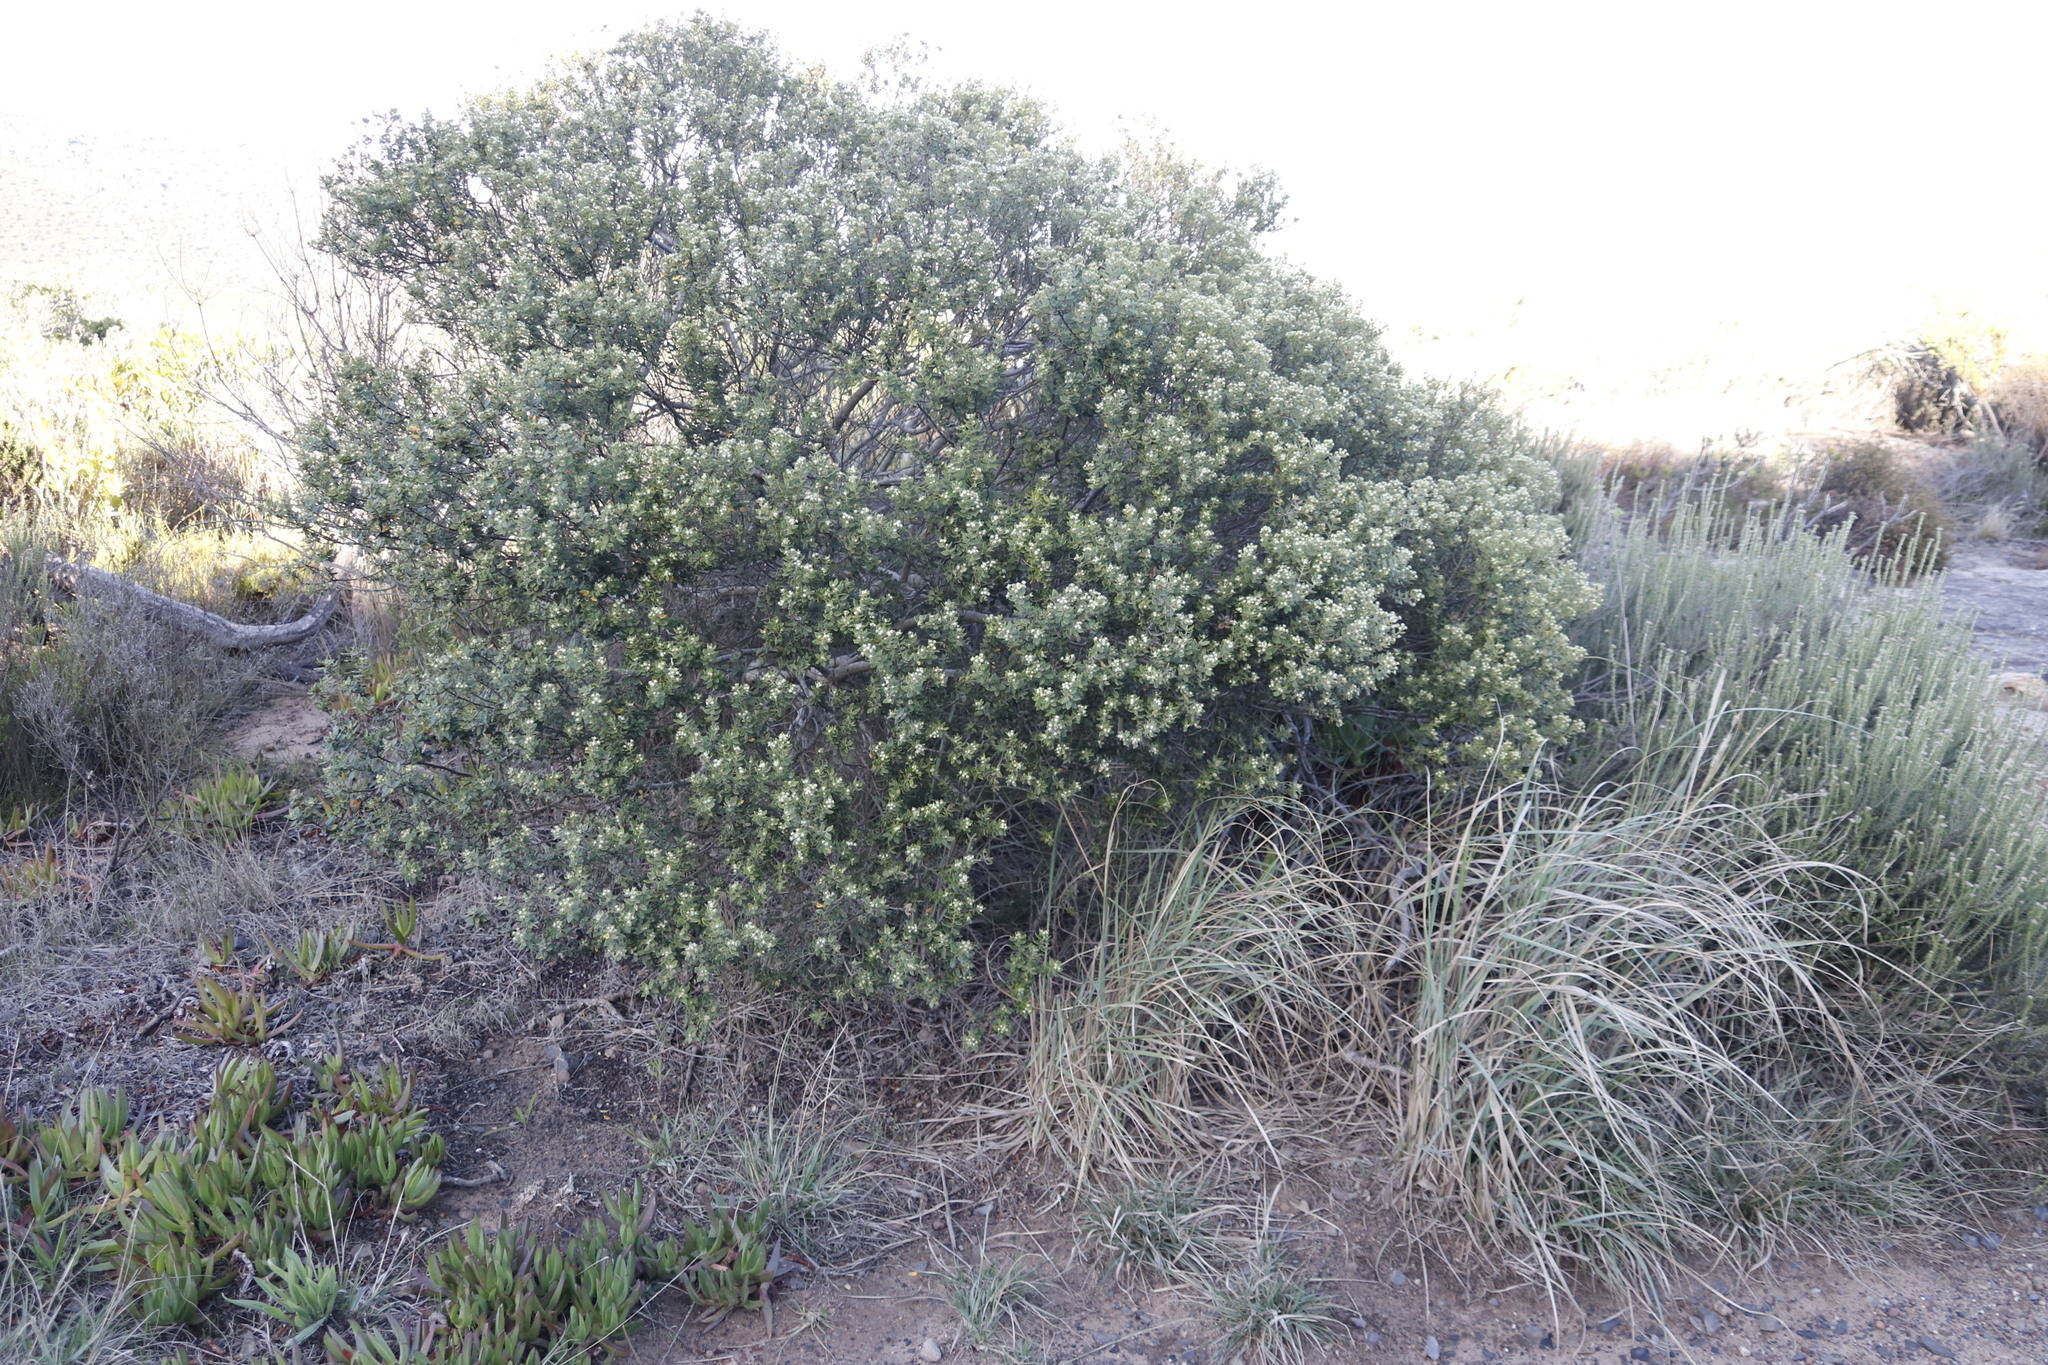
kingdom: Plantae
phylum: Tracheophyta
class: Magnoliopsida
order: Rosales
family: Rhamnaceae
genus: Phylica
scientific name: Phylica buxifolia
